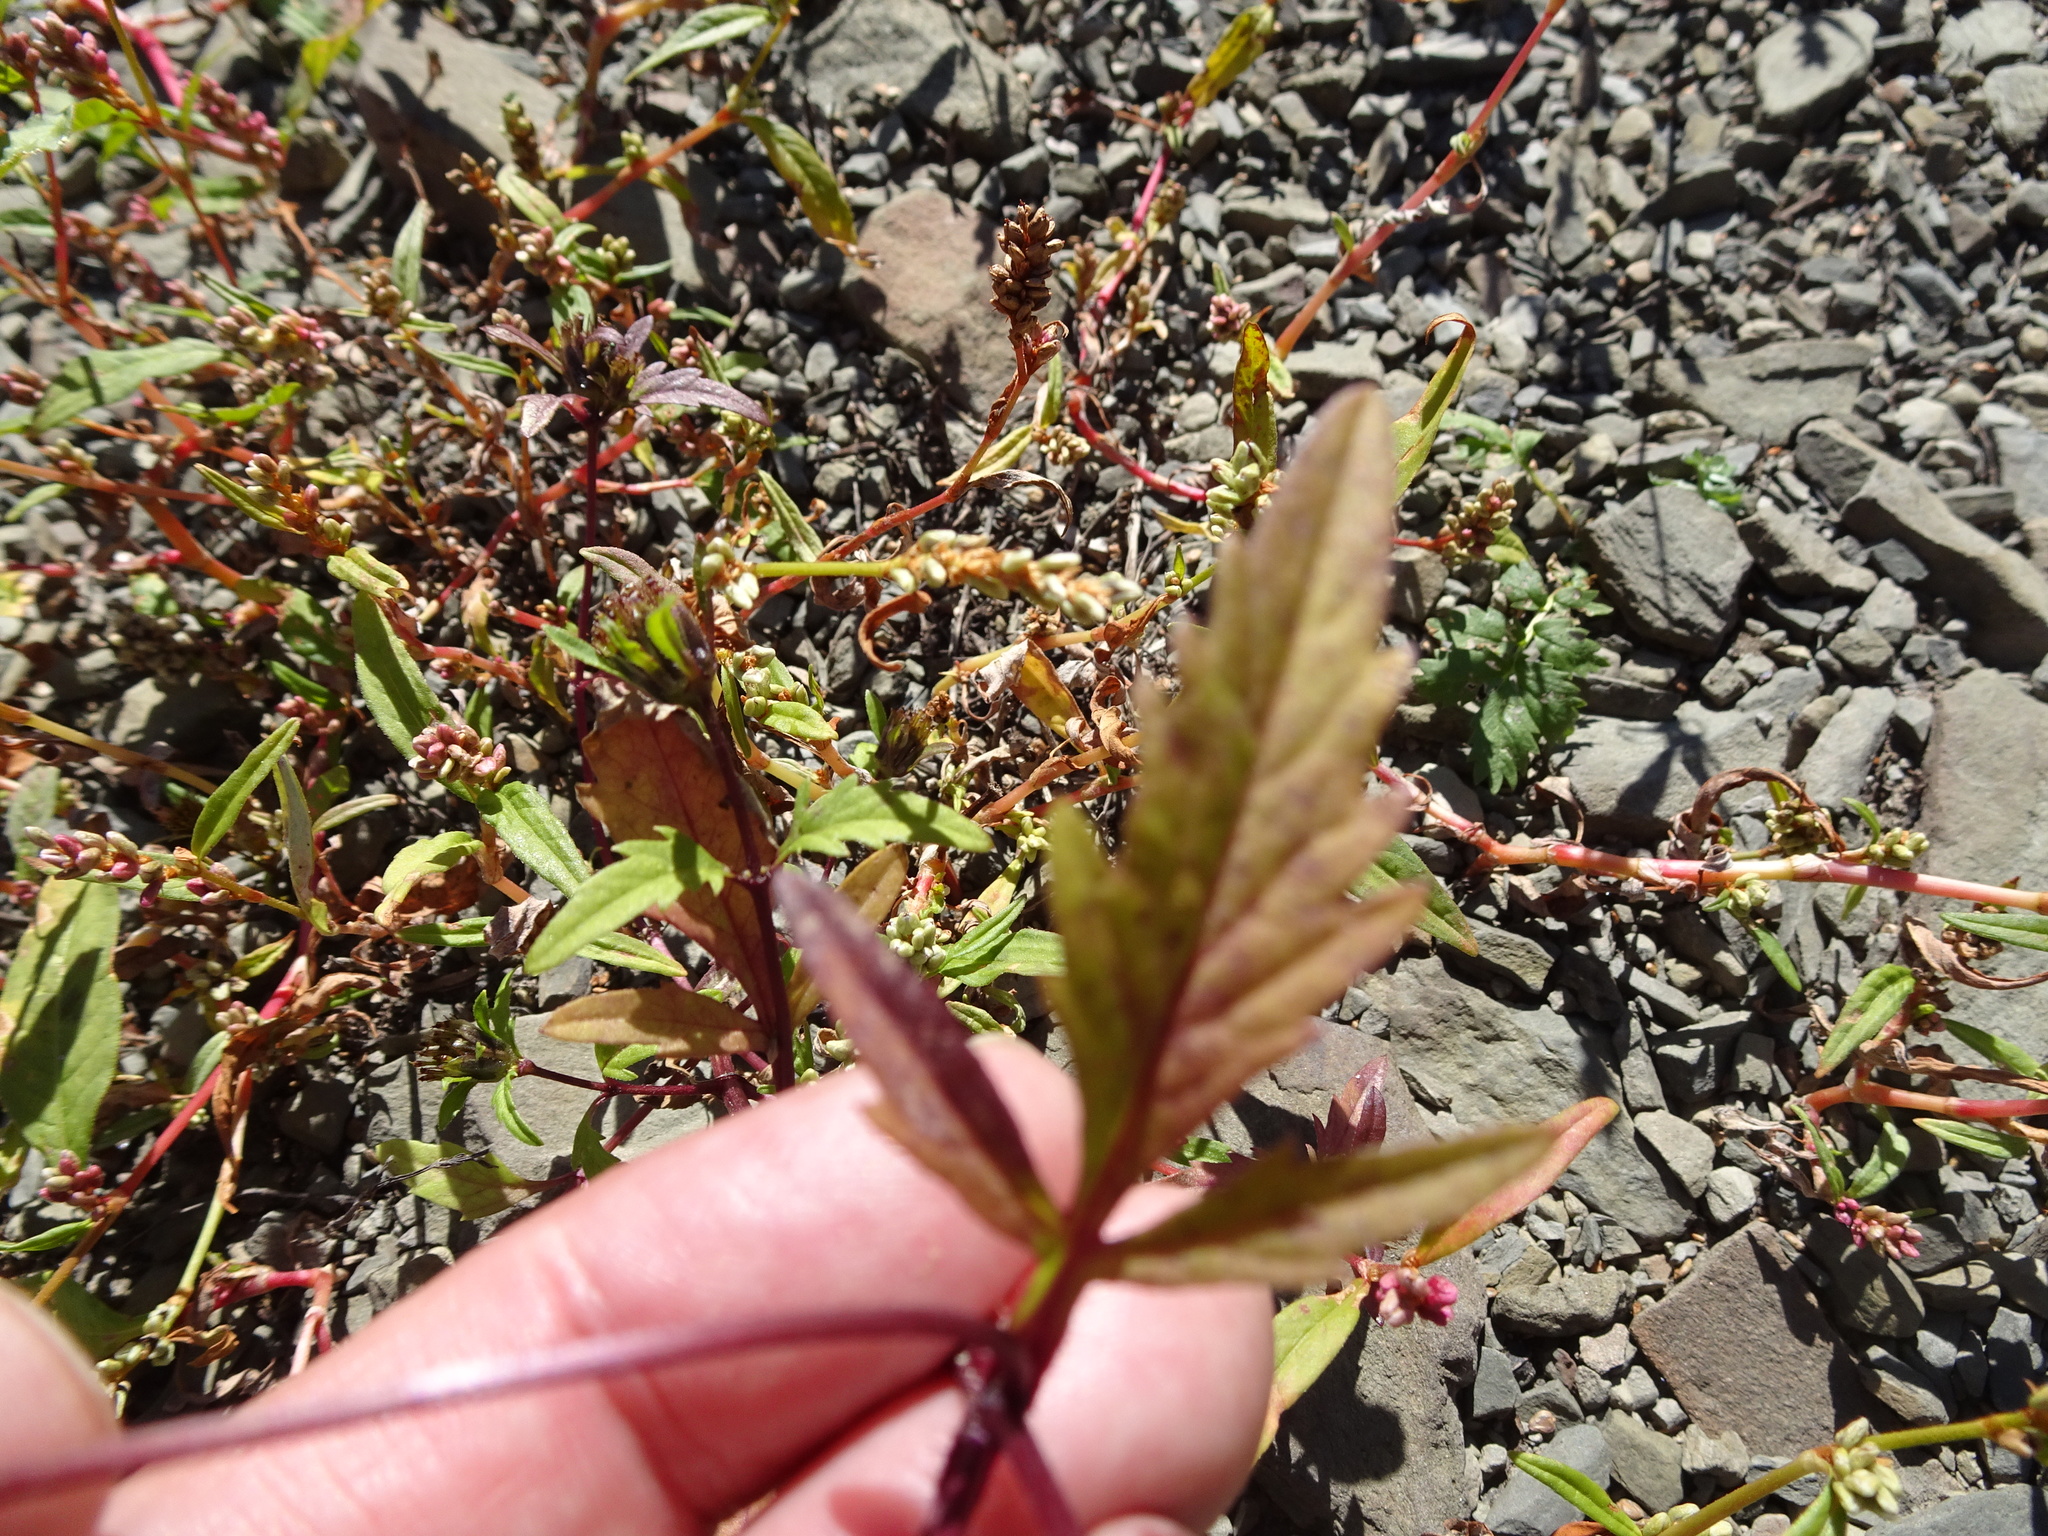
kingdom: Plantae
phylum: Tracheophyta
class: Magnoliopsida
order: Asterales
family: Asteraceae
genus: Bidens
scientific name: Bidens tripartita
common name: Trifid bur-marigold
